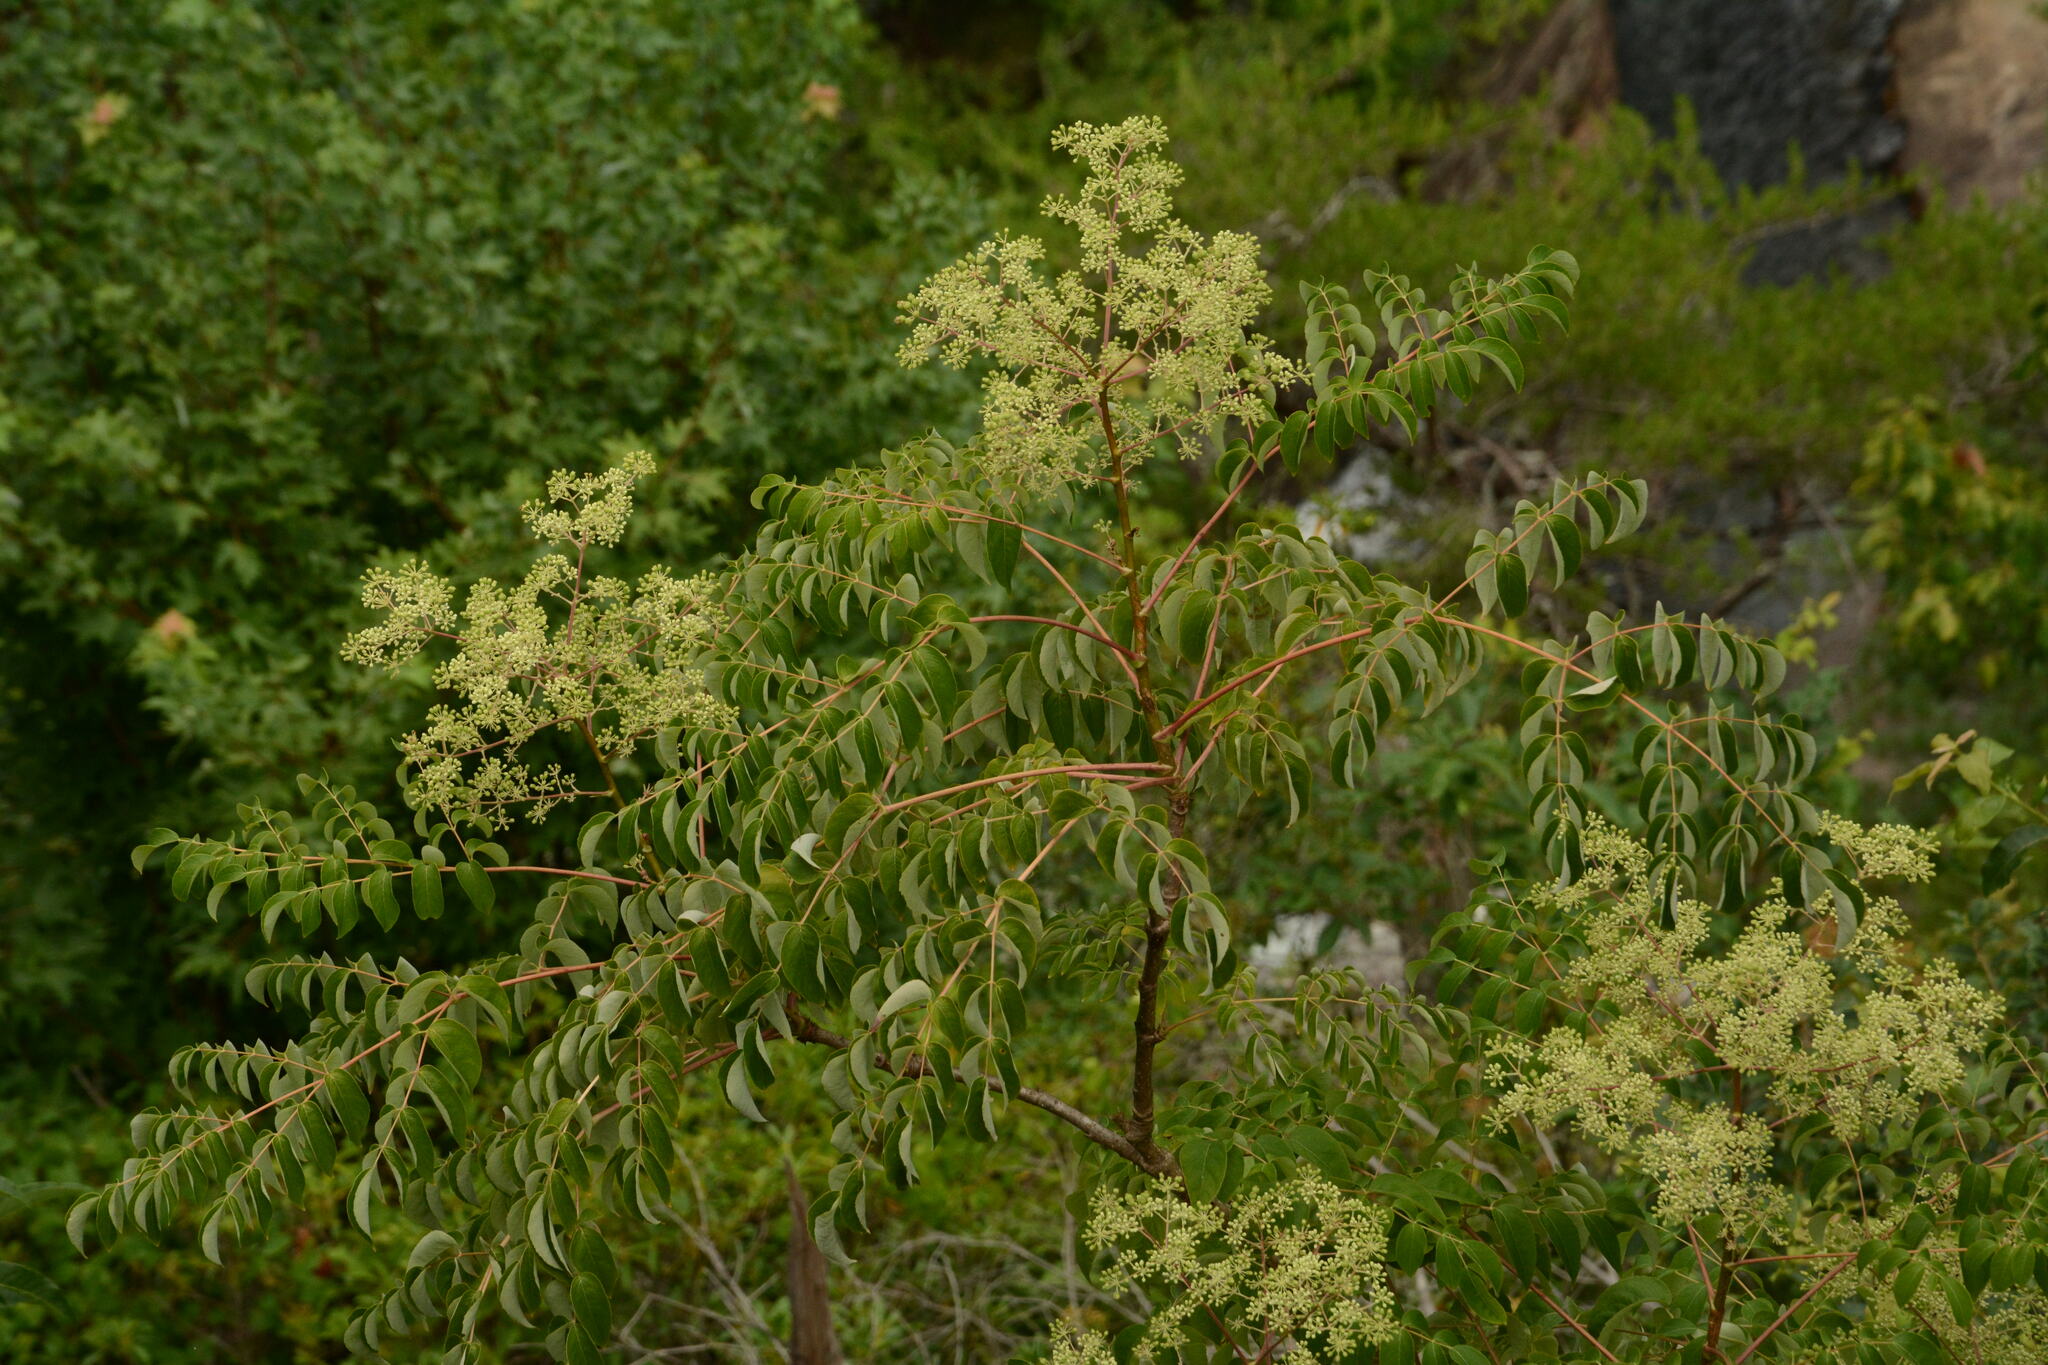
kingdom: Plantae
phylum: Tracheophyta
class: Magnoliopsida
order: Apiales
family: Araliaceae
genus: Aralia
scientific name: Aralia spinosa
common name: Hercules'-club
